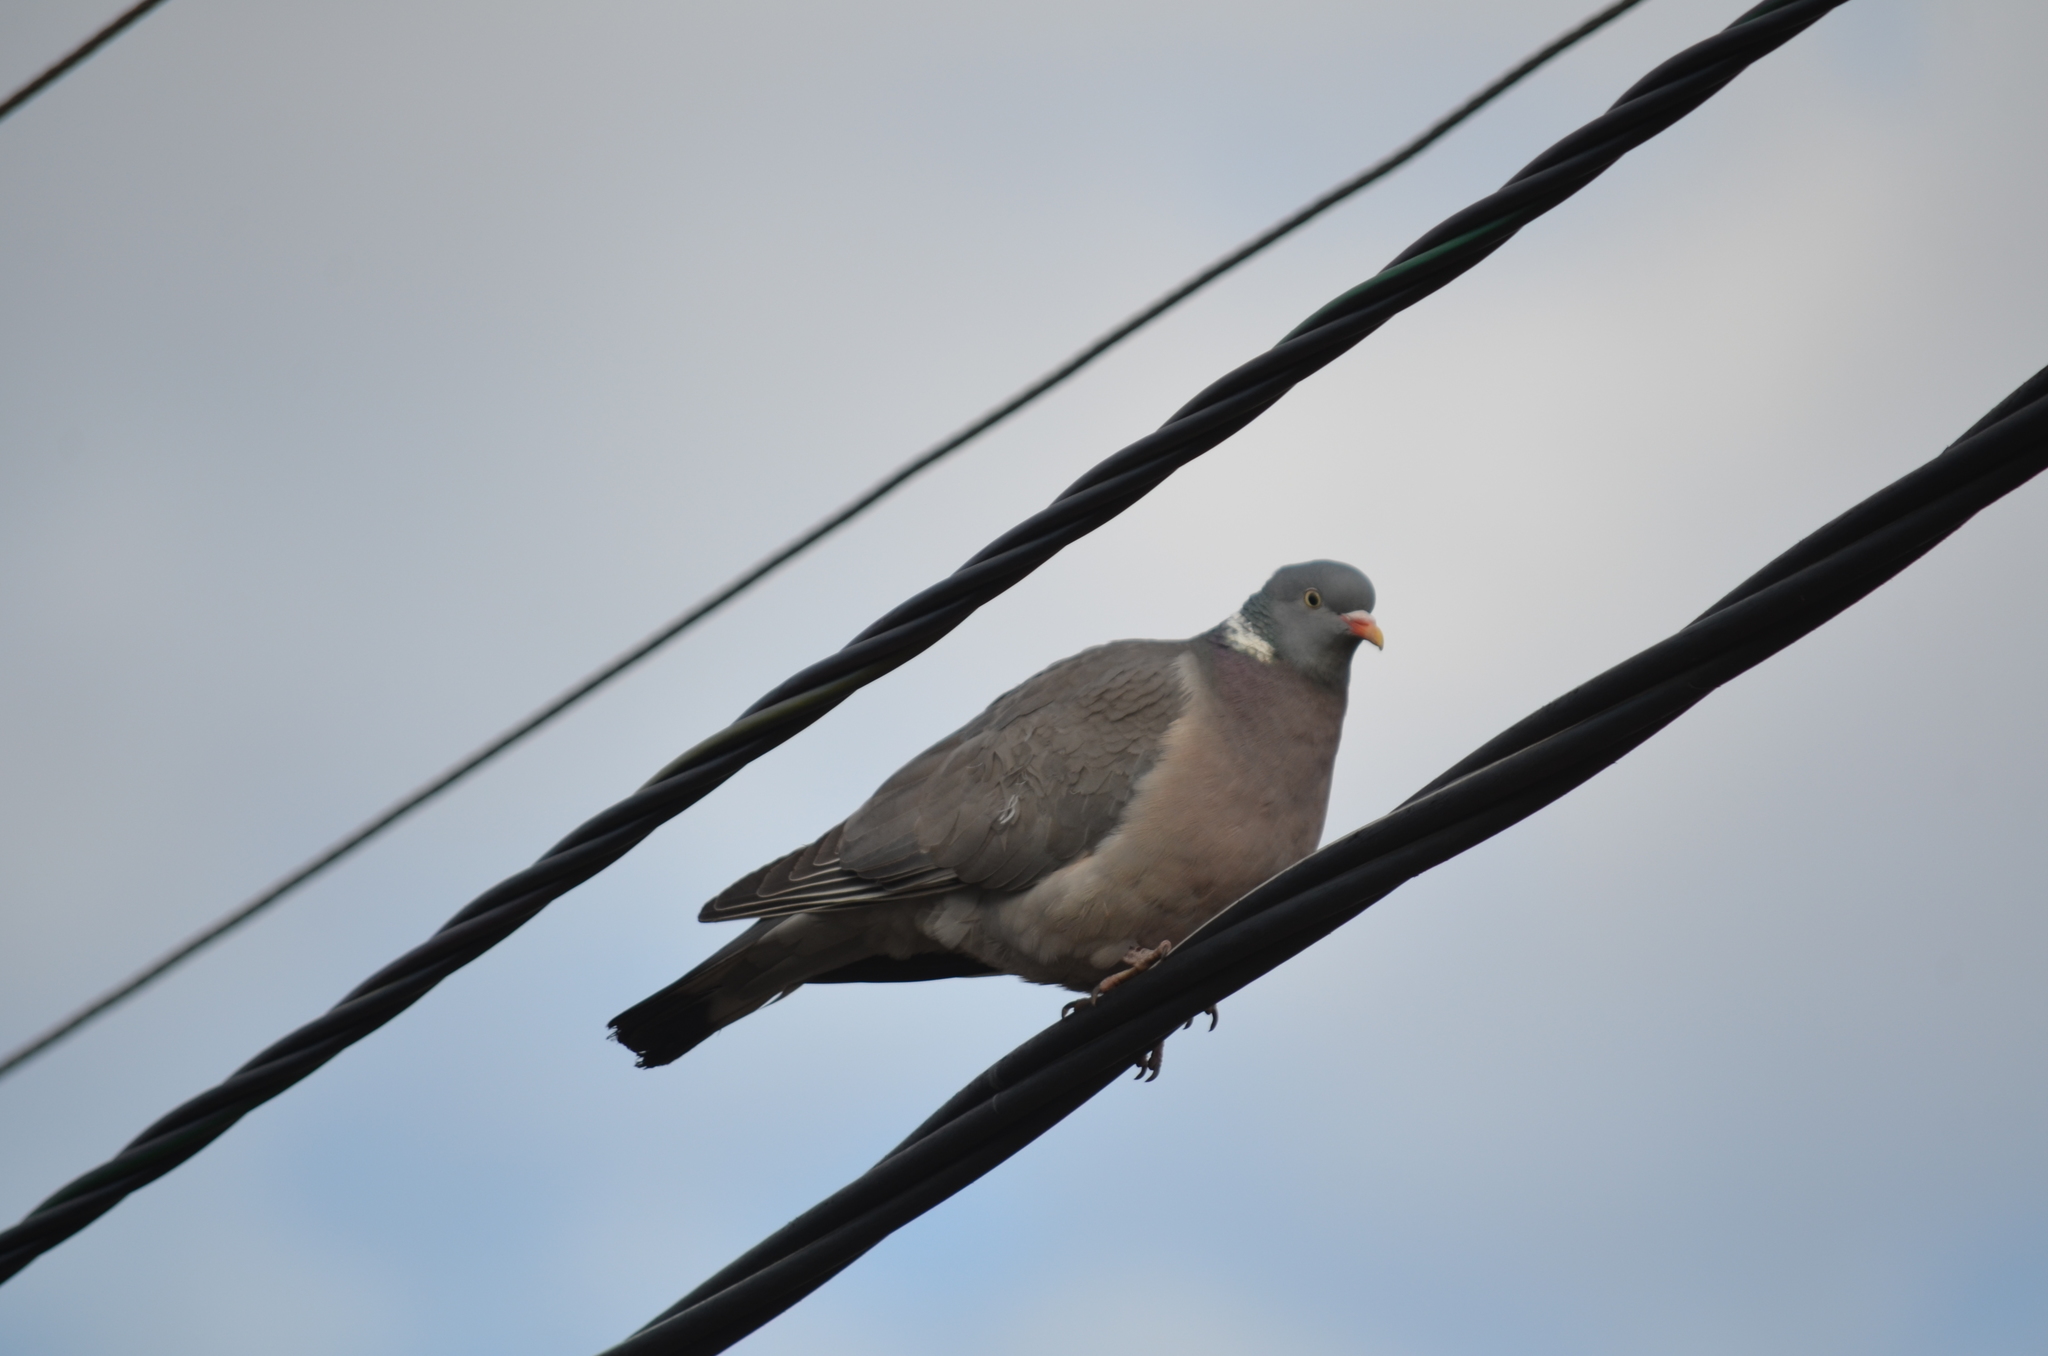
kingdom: Animalia
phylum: Chordata
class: Aves
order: Columbiformes
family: Columbidae
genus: Columba
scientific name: Columba palumbus
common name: Common wood pigeon
